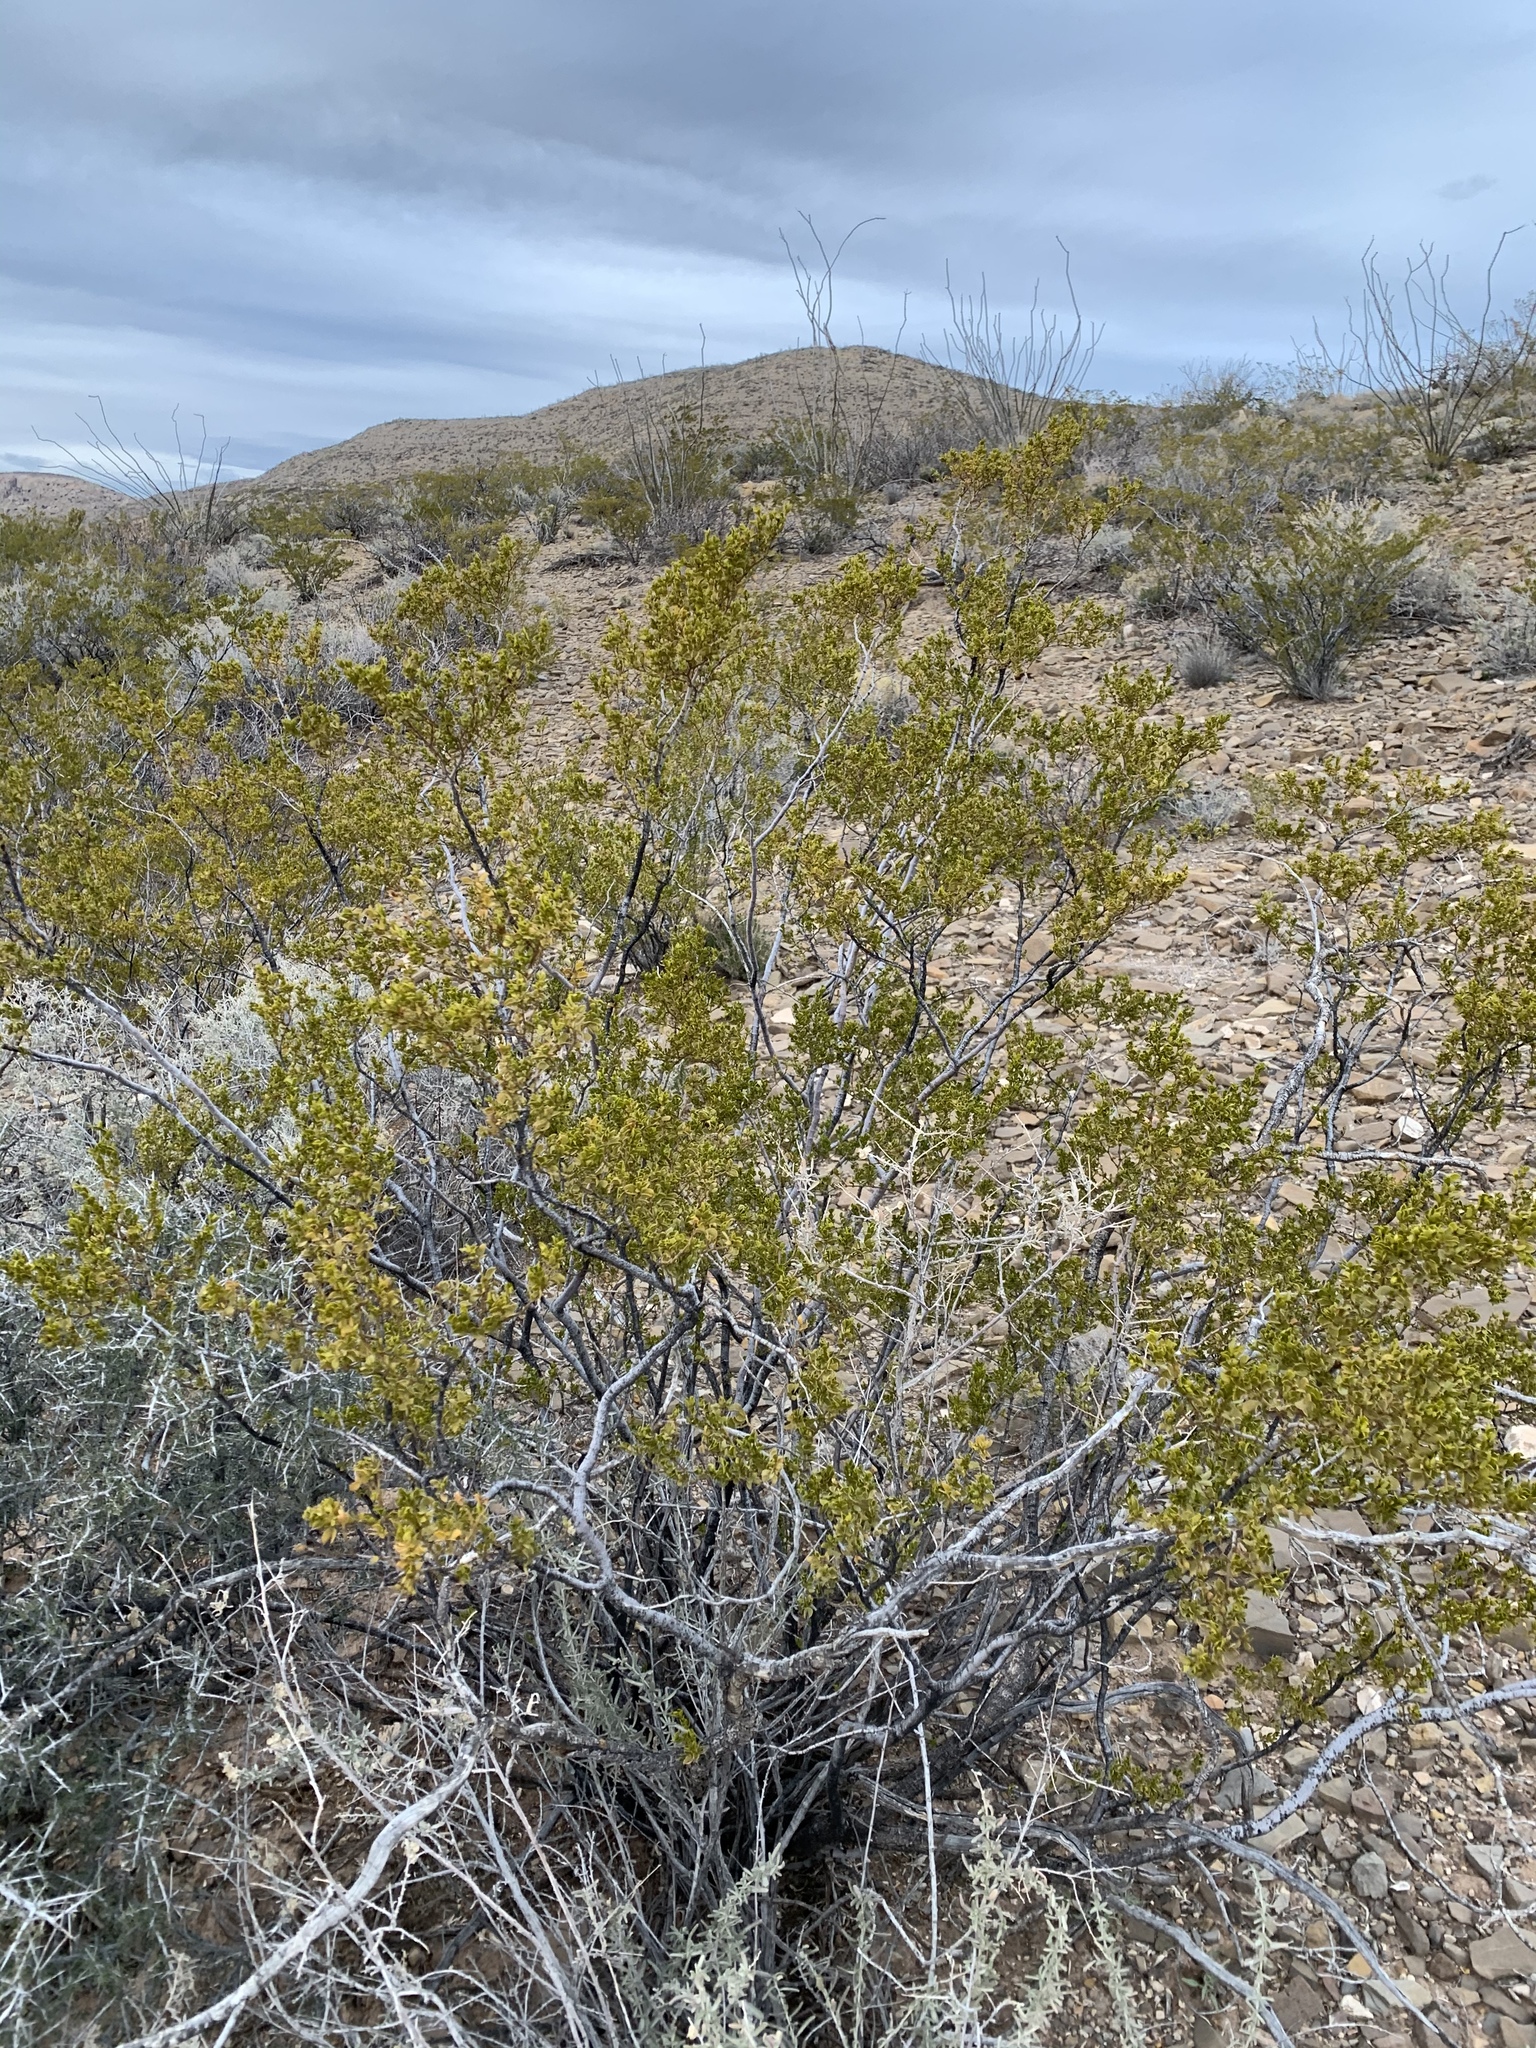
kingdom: Plantae
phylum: Tracheophyta
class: Magnoliopsida
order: Zygophyllales
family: Zygophyllaceae
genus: Larrea
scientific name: Larrea tridentata
